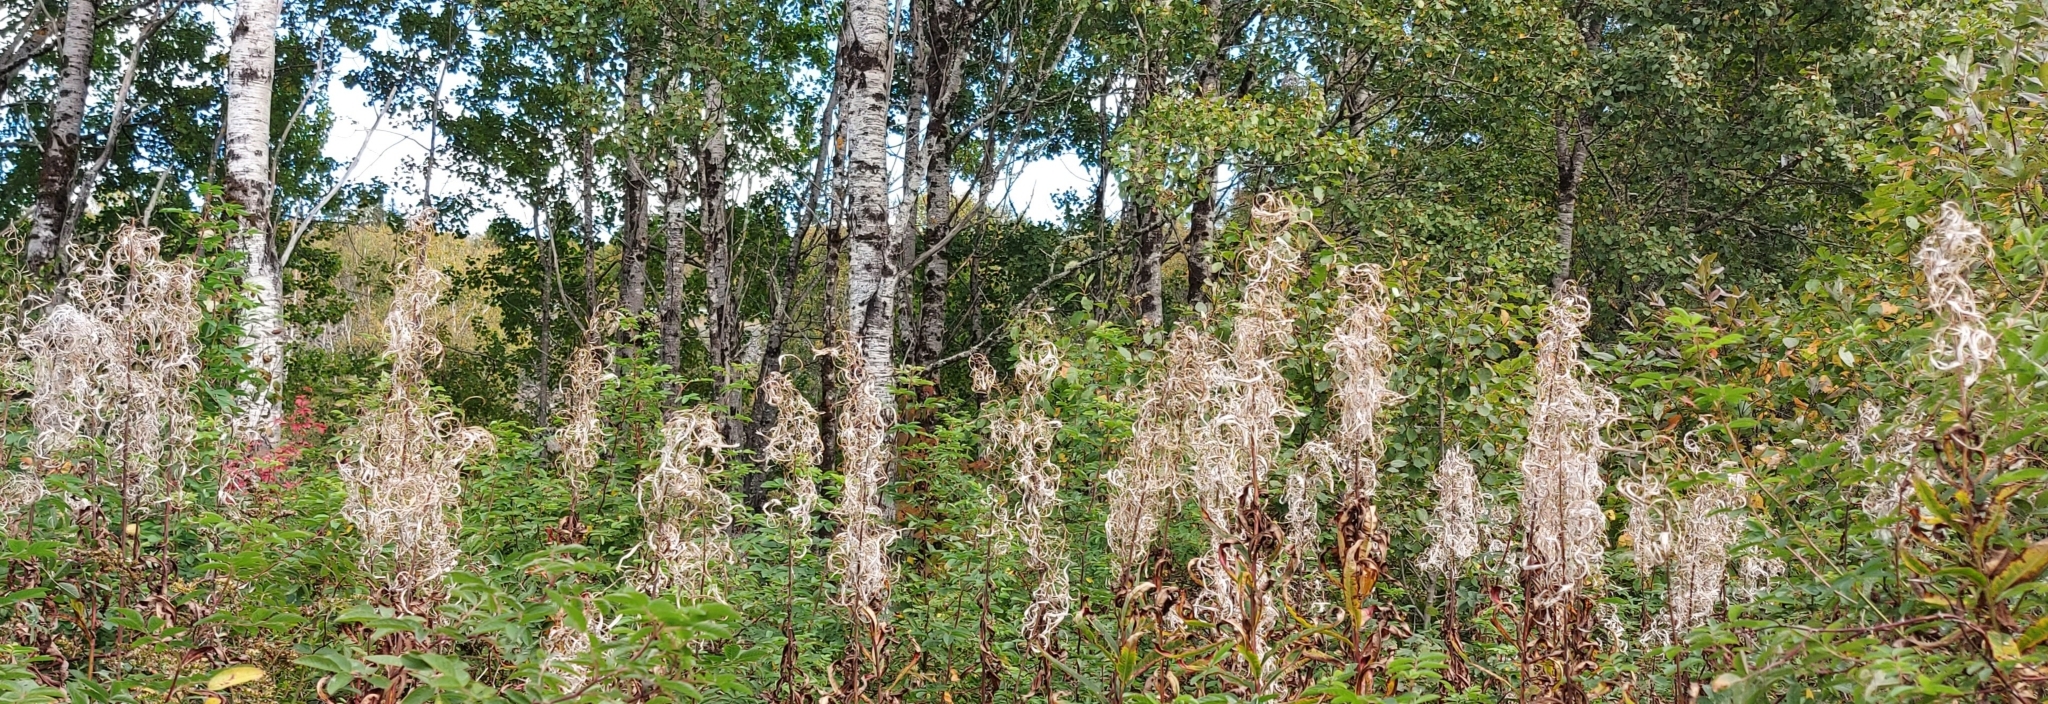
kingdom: Plantae
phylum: Tracheophyta
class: Magnoliopsida
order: Myrtales
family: Onagraceae
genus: Chamaenerion
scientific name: Chamaenerion angustifolium
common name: Fireweed
